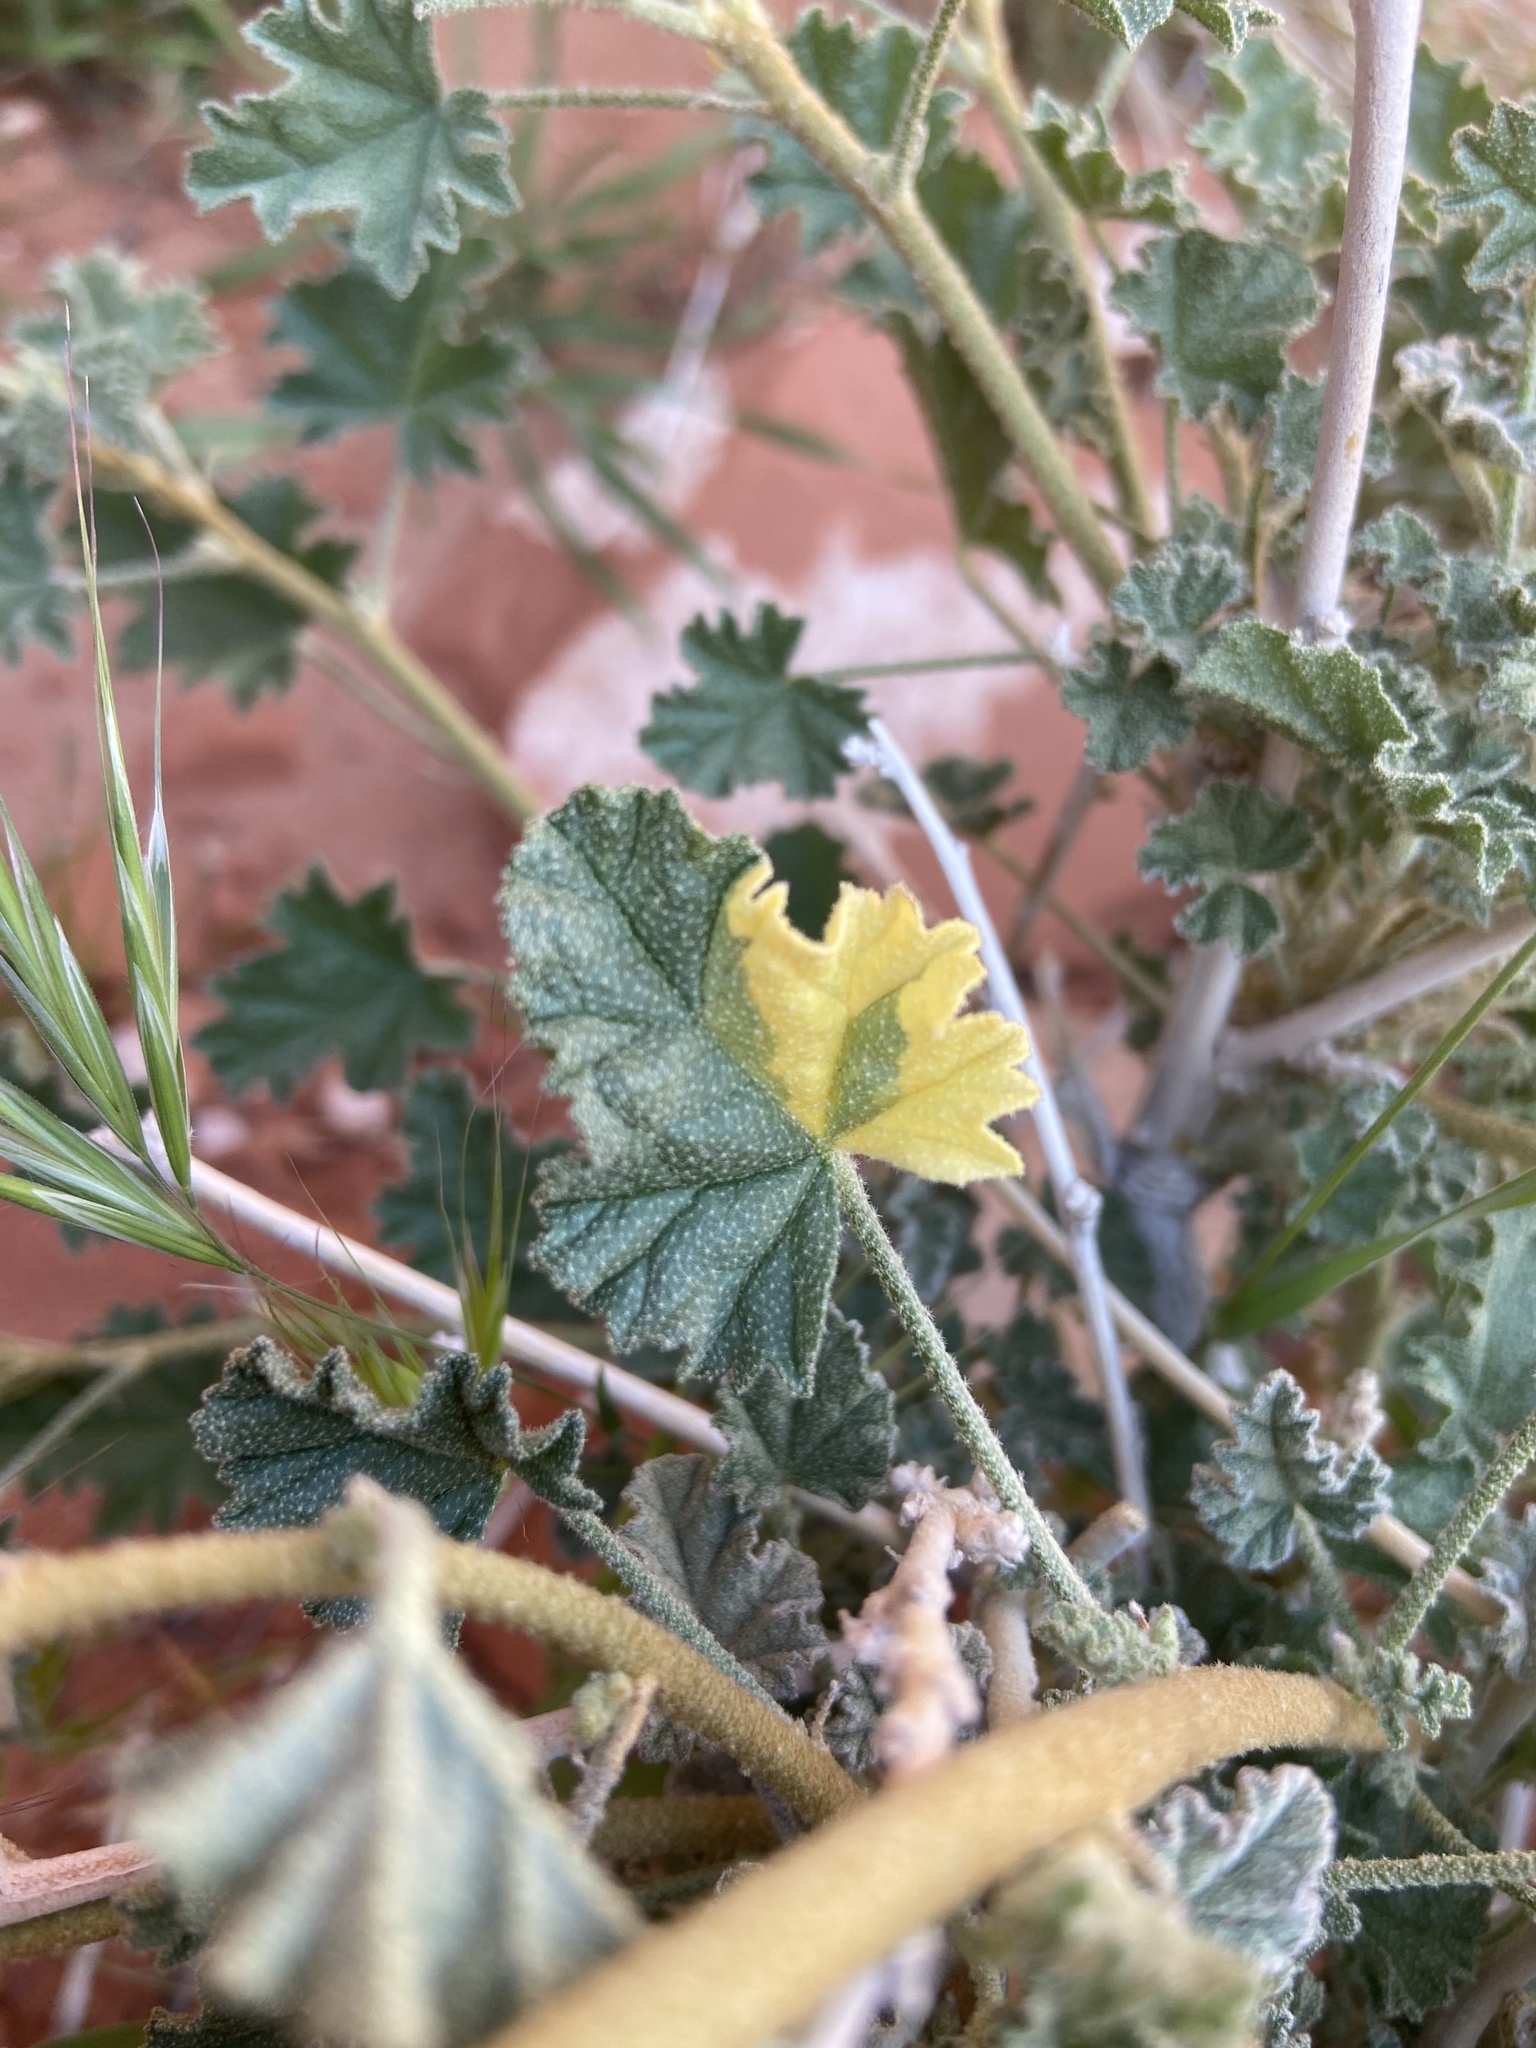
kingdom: Plantae
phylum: Tracheophyta
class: Magnoliopsida
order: Malvales
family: Malvaceae
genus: Sphaeralcea
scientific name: Sphaeralcea ambigua
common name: Apricot globe-mallow
